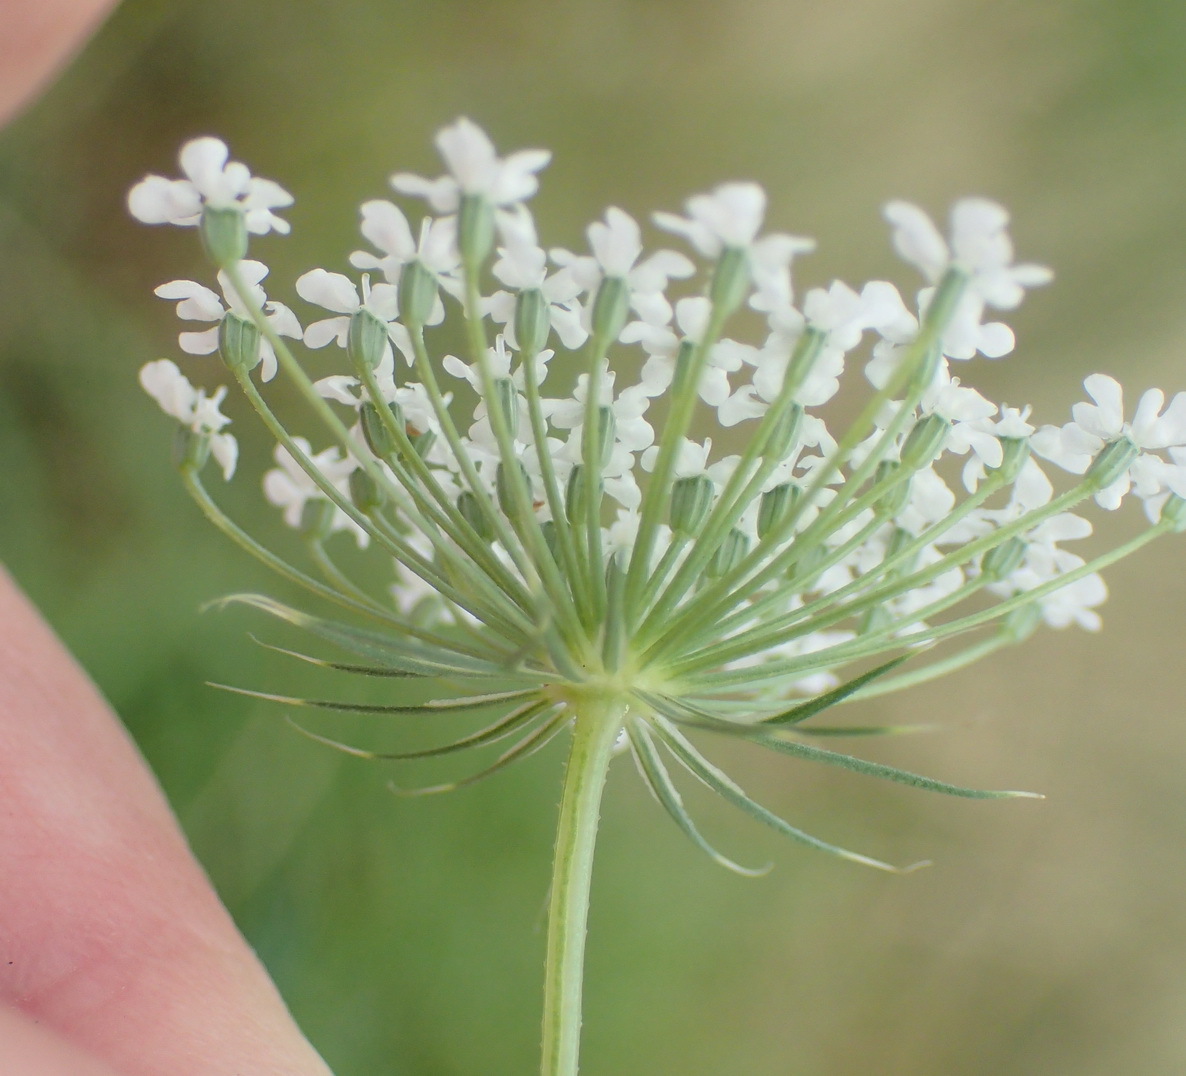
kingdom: Plantae
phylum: Tracheophyta
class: Magnoliopsida
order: Apiales
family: Apiaceae
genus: Ammi
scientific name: Ammi majus
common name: Bullwort
